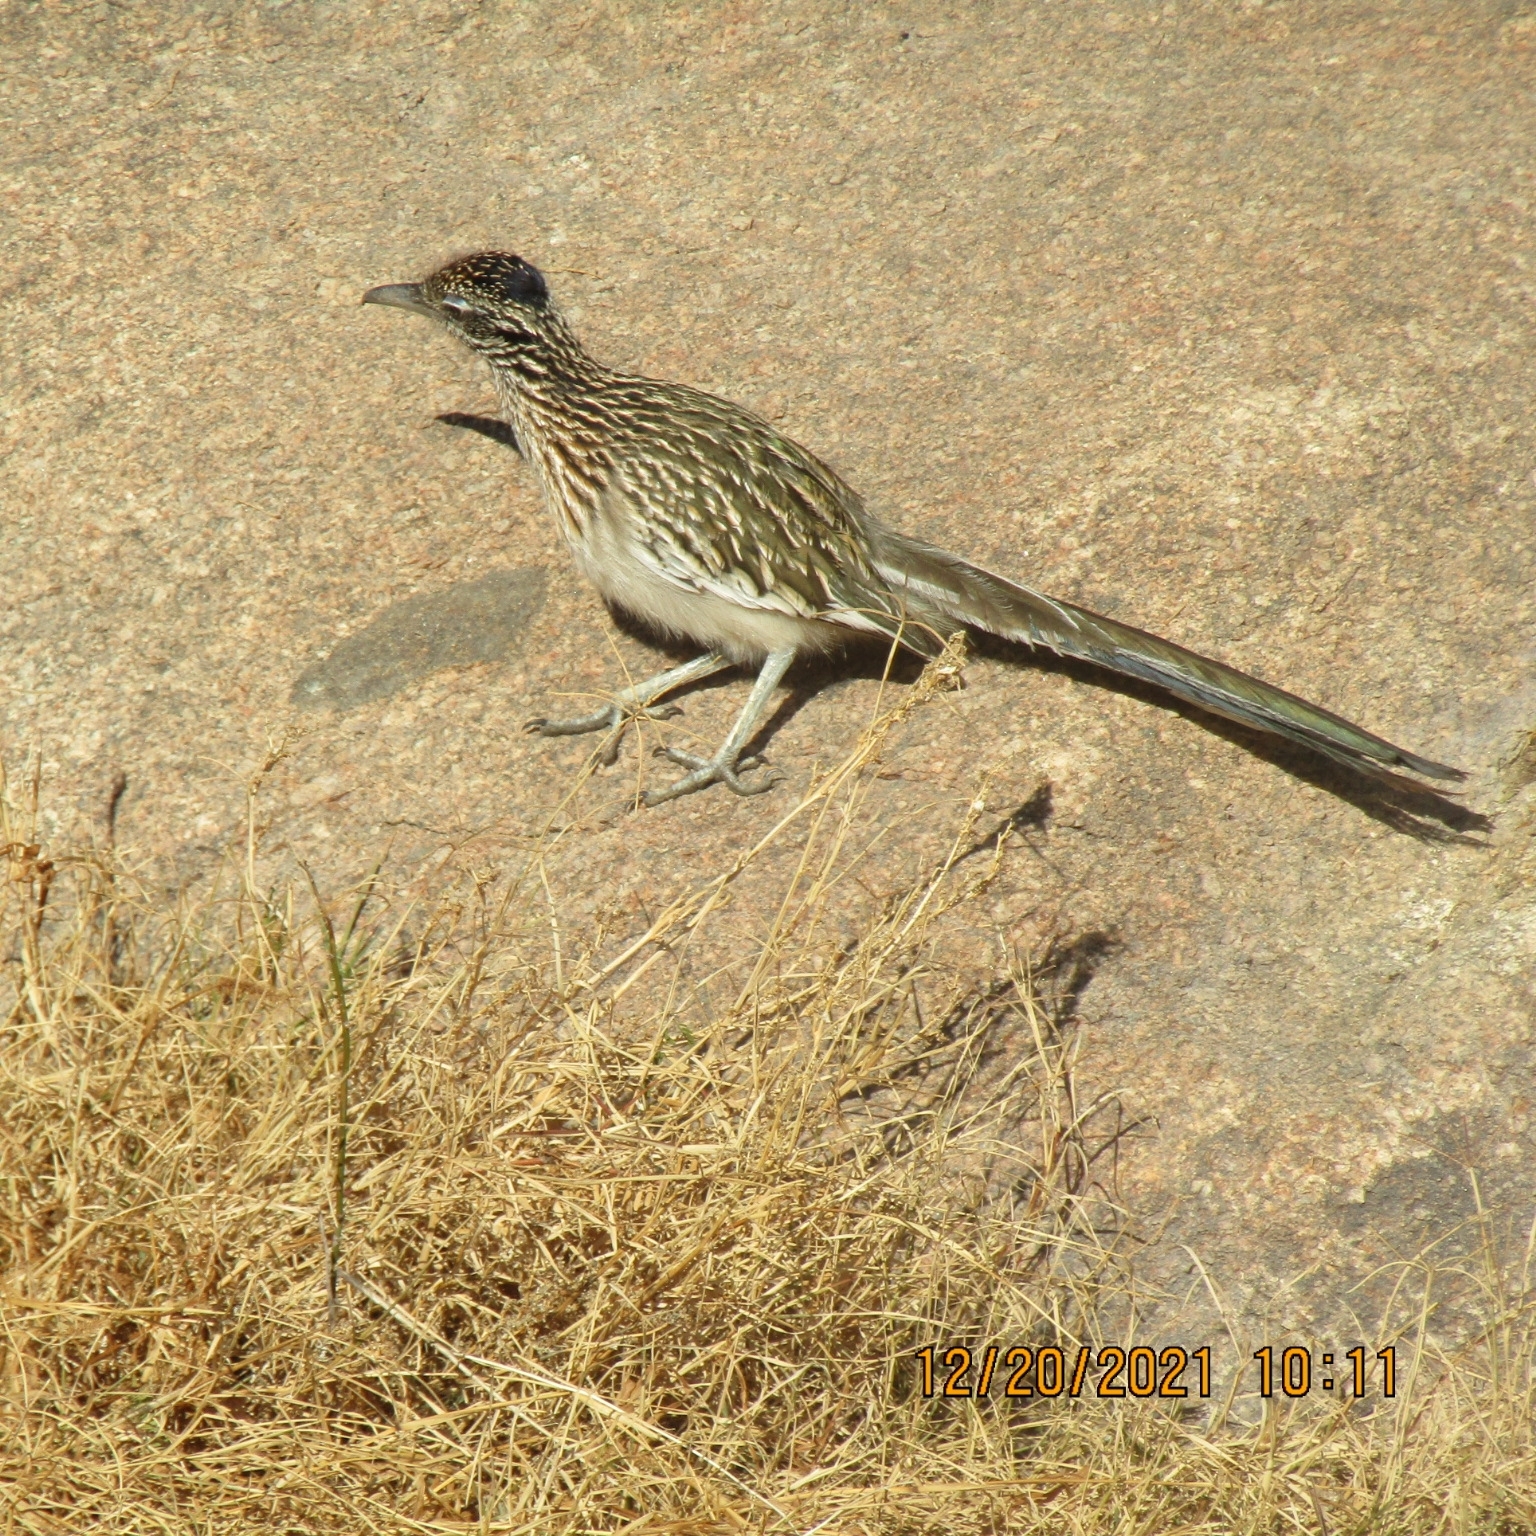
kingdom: Animalia
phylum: Chordata
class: Aves
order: Cuculiformes
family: Cuculidae
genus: Geococcyx
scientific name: Geococcyx californianus
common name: Greater roadrunner
